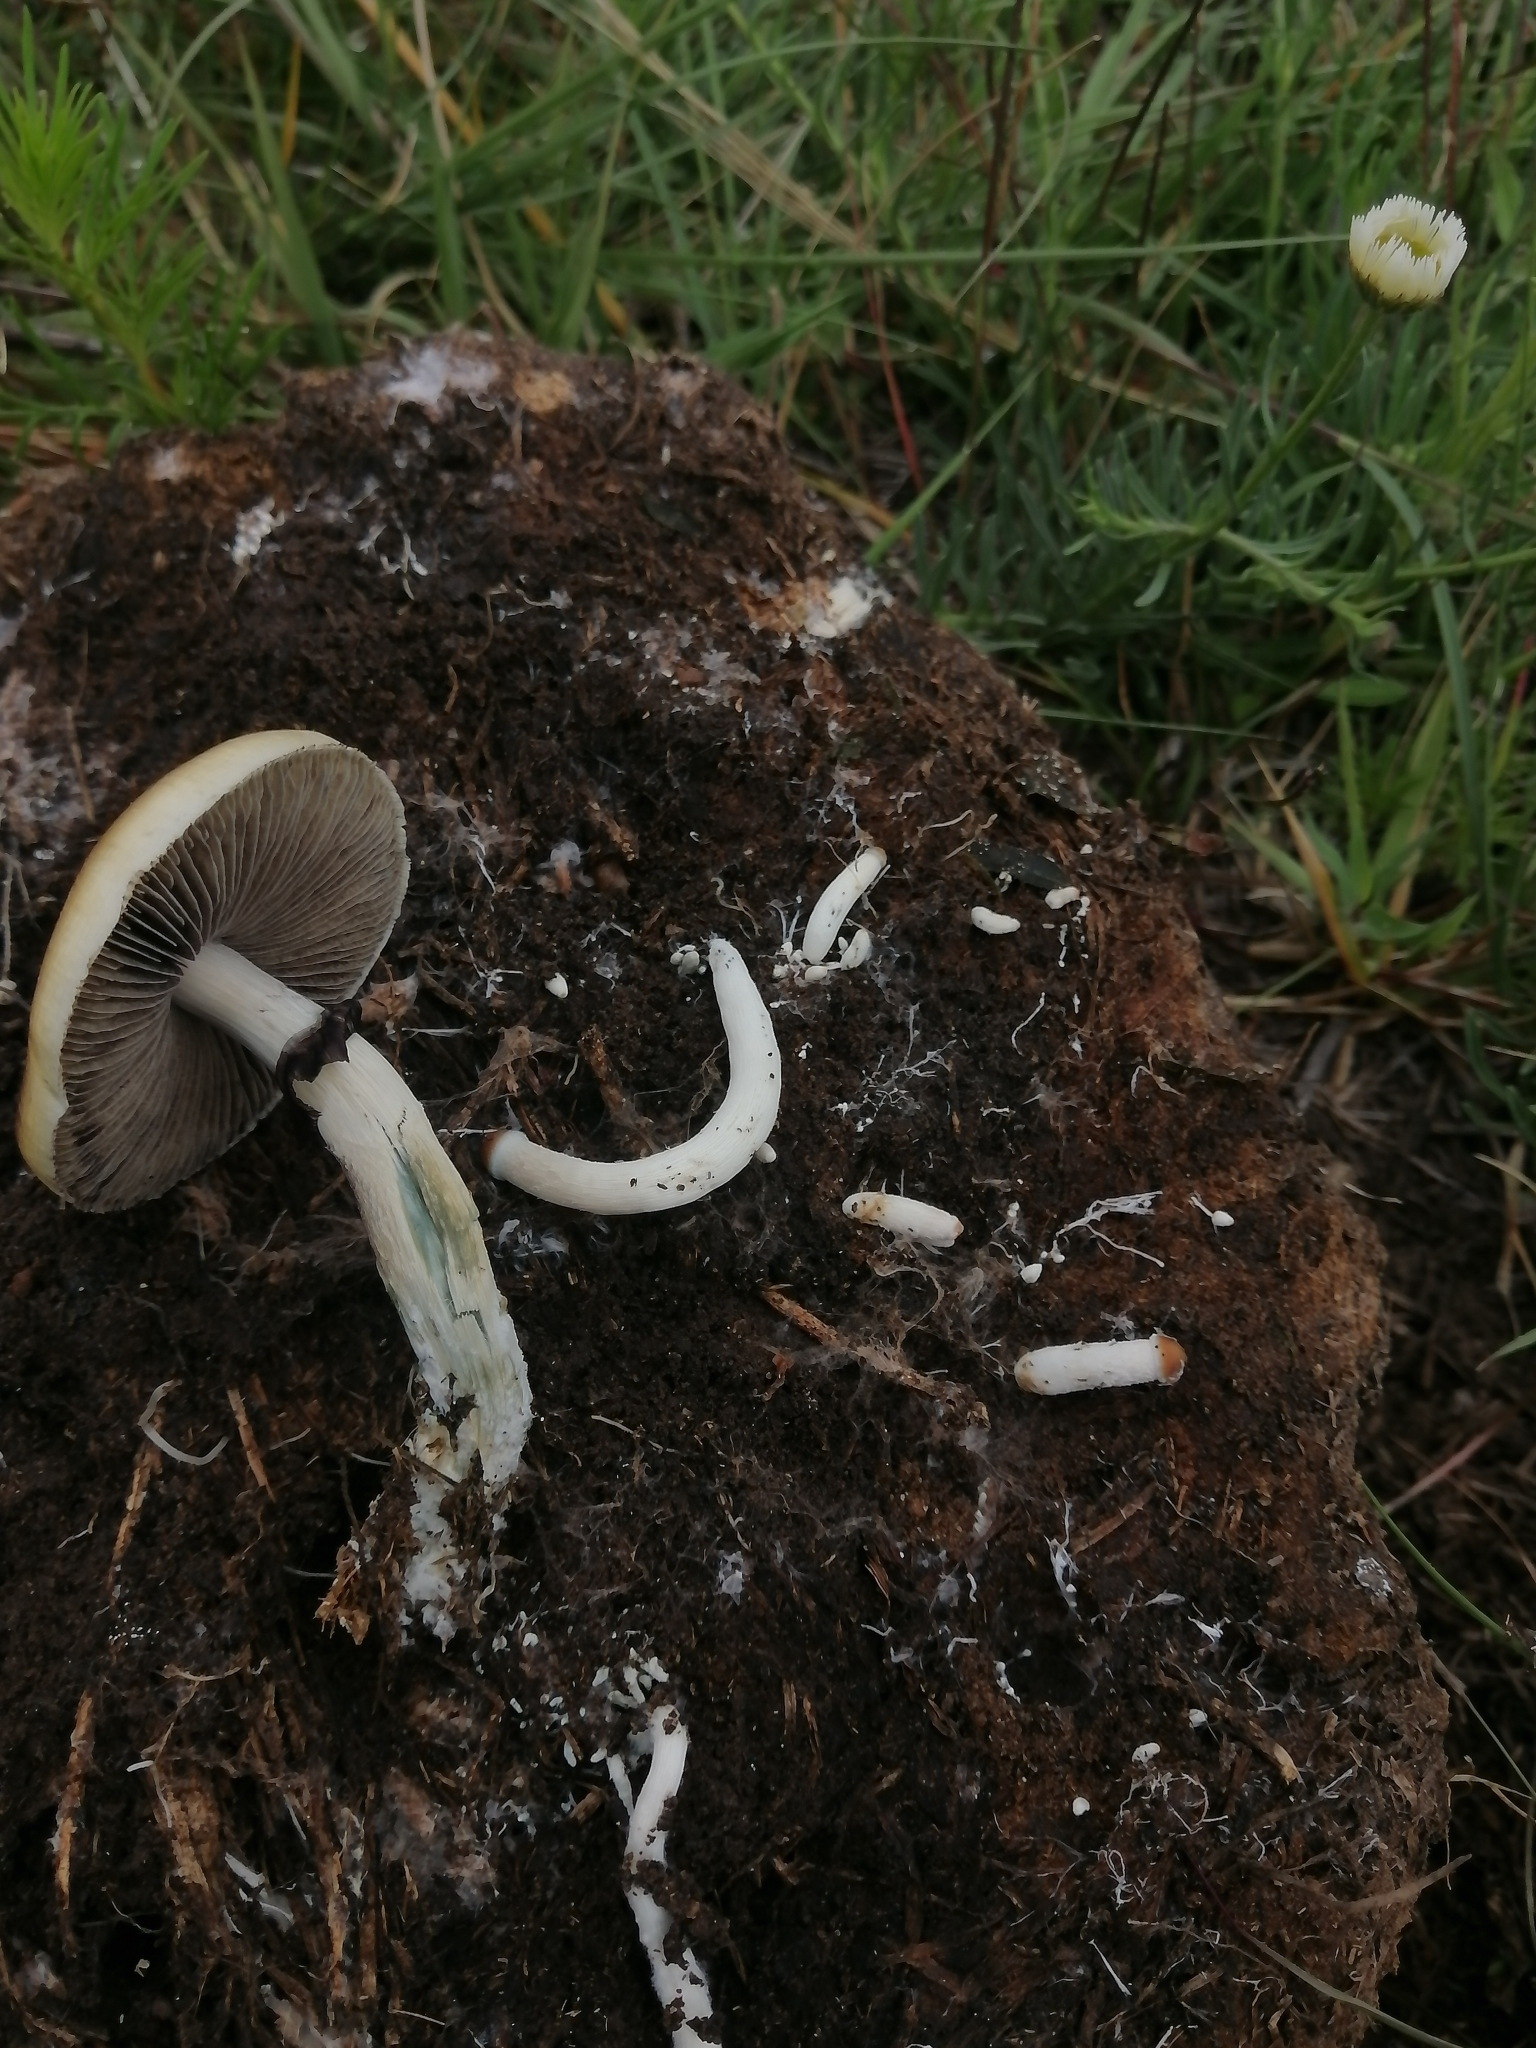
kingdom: Fungi
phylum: Basidiomycota
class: Agaricomycetes
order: Agaricales
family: Hymenogastraceae
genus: Psilocybe
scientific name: Psilocybe cubensis
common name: Golden brownie
